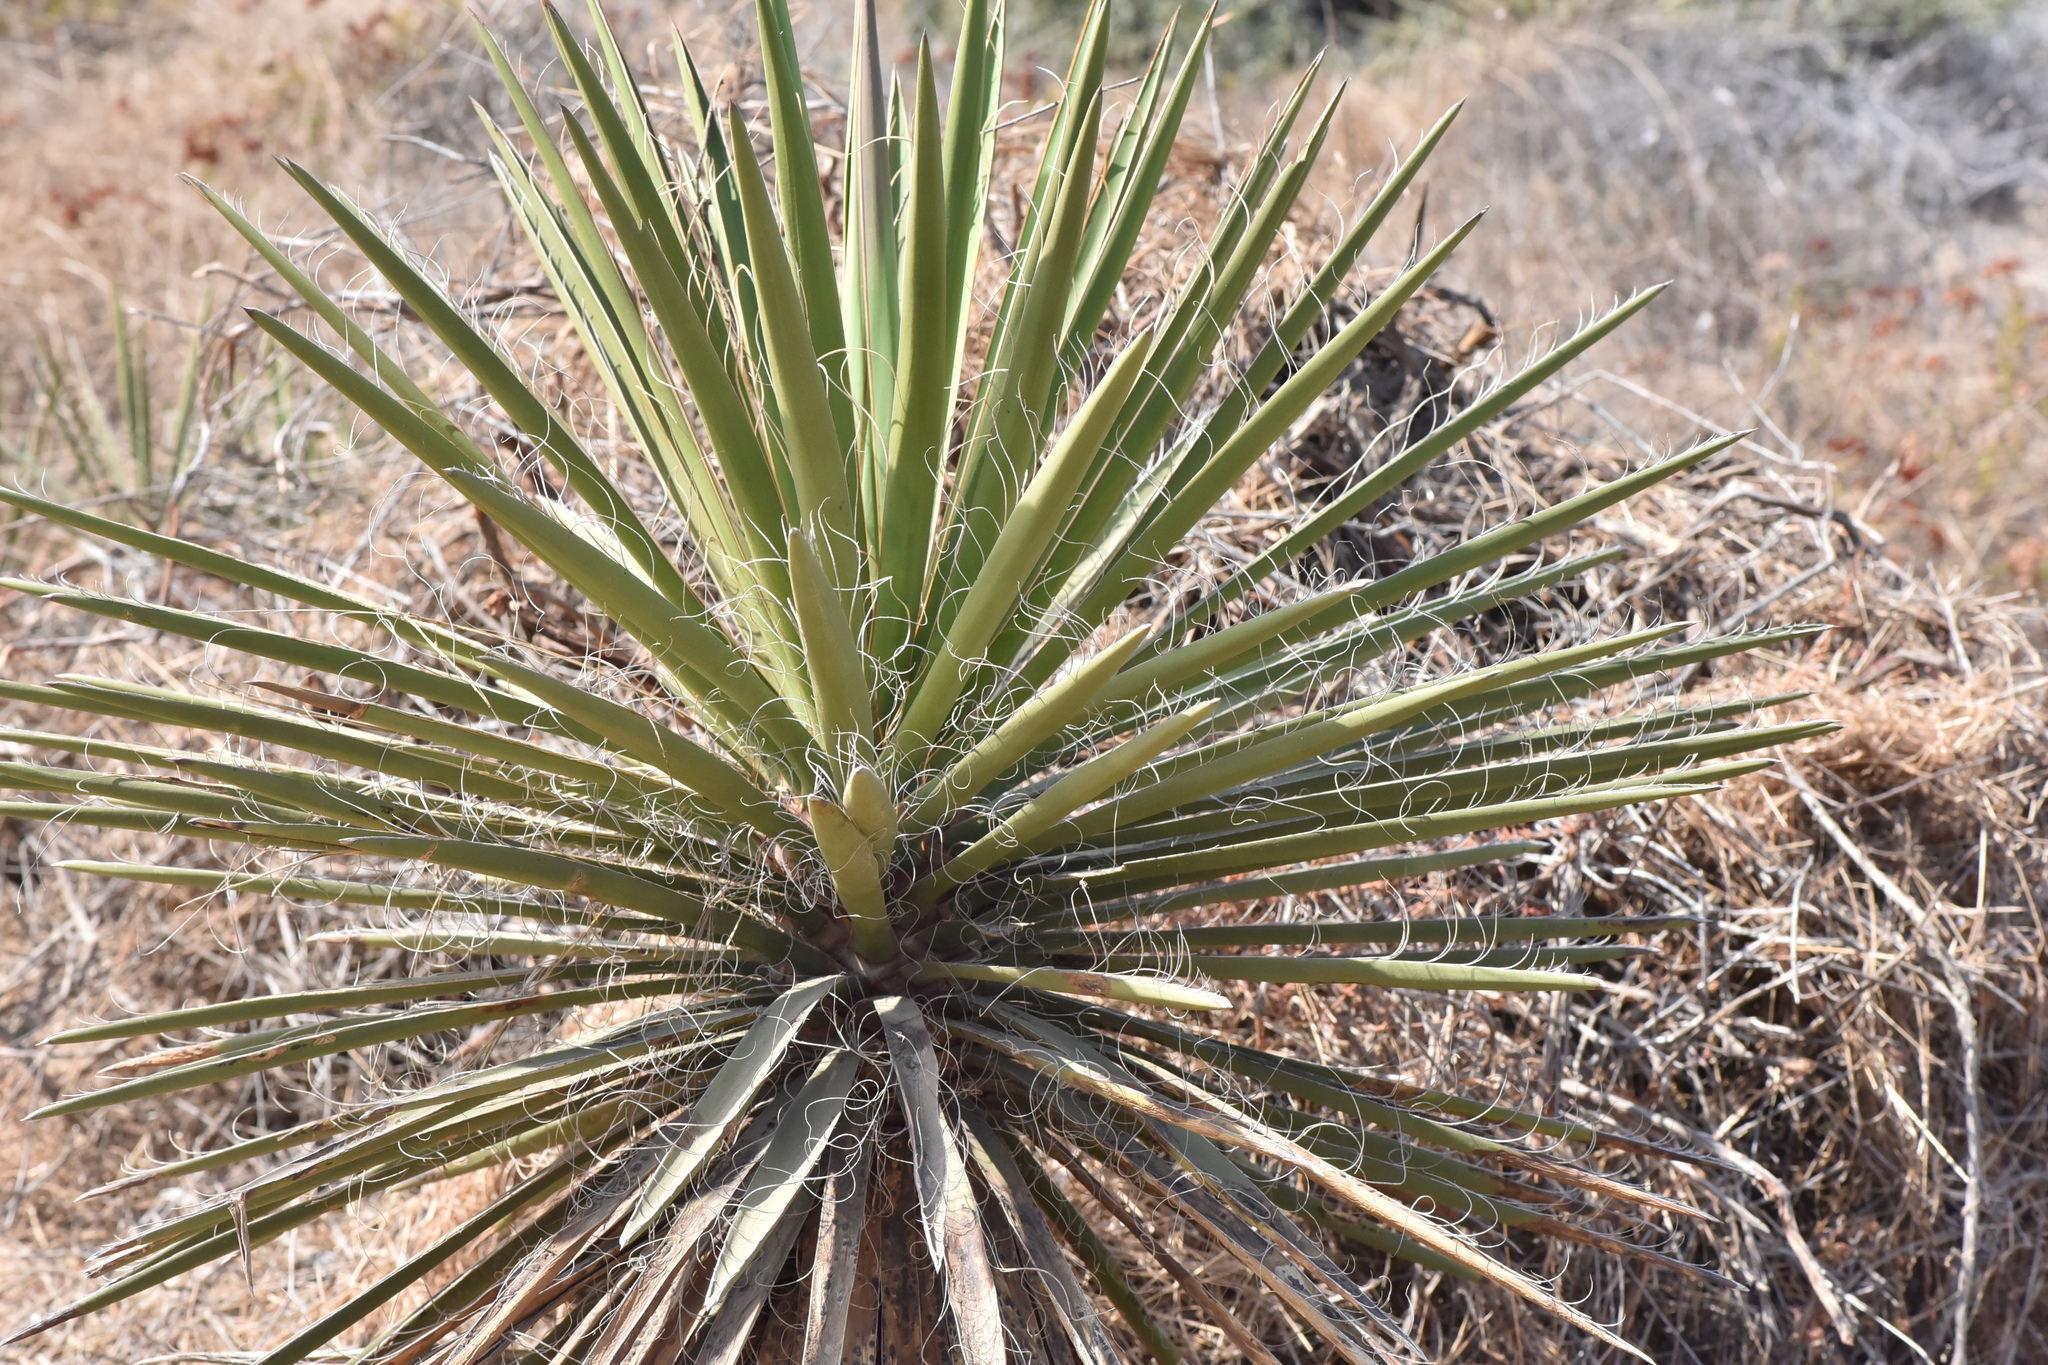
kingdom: Plantae
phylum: Tracheophyta
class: Liliopsida
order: Asparagales
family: Asparagaceae
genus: Yucca
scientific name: Yucca schidigera
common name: Mojave yucca
